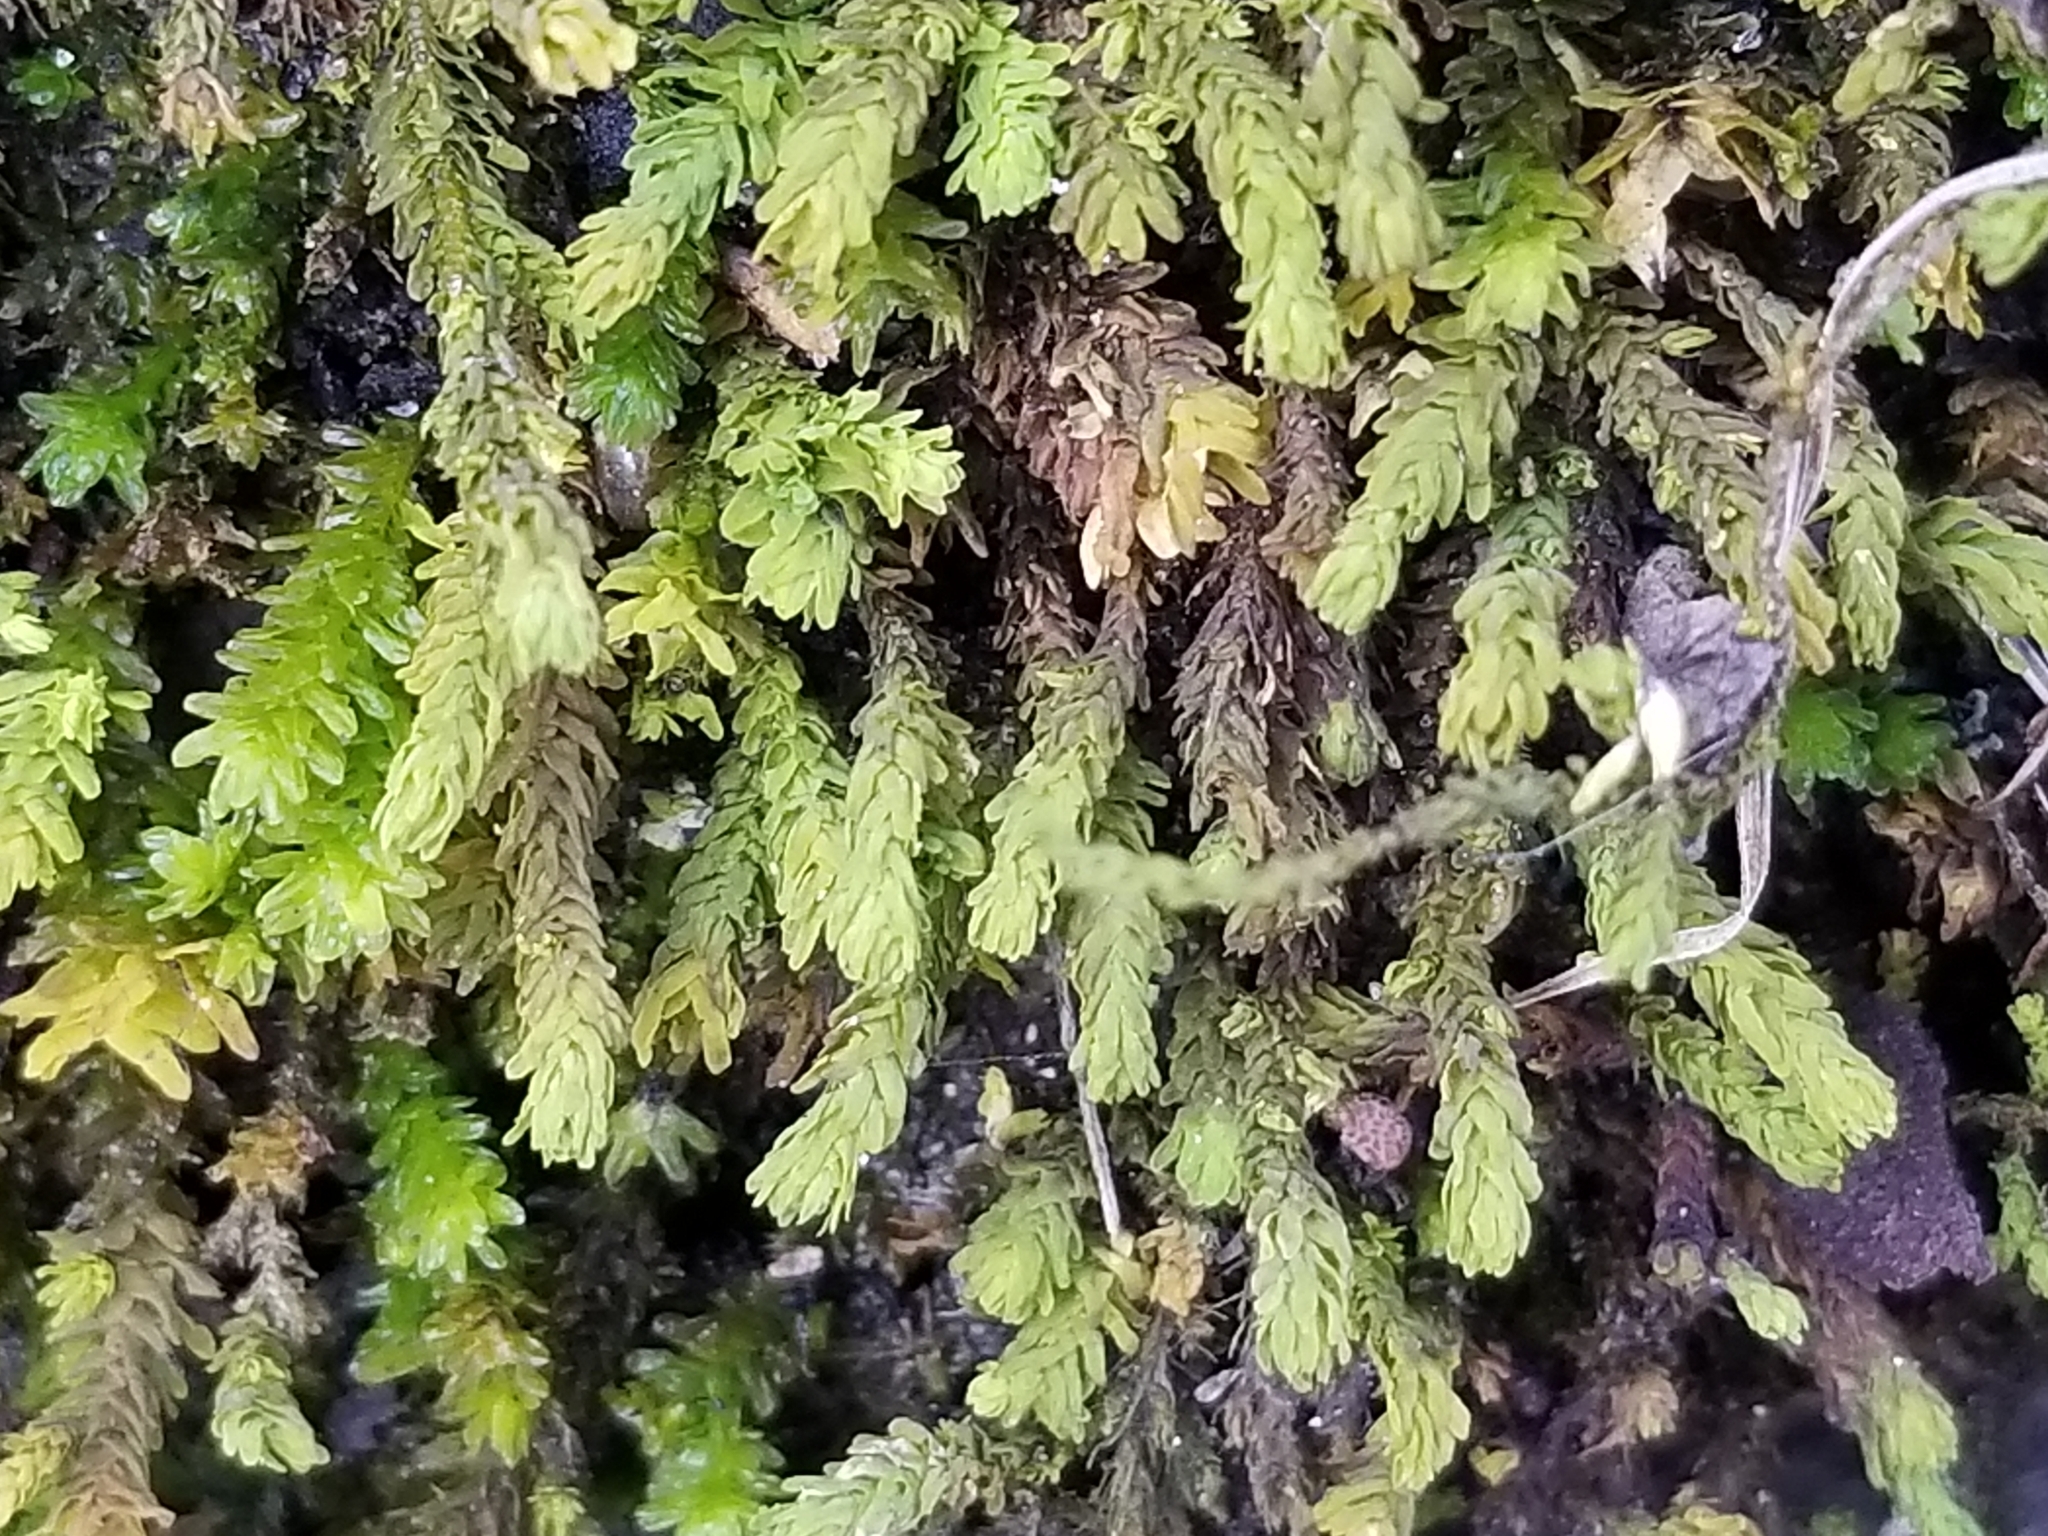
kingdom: Plantae
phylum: Bryophyta
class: Bryopsida
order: Hypnales
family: Anomodontaceae
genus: Anomodon
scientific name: Anomodon minor
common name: Blunt-leaved anomodon
